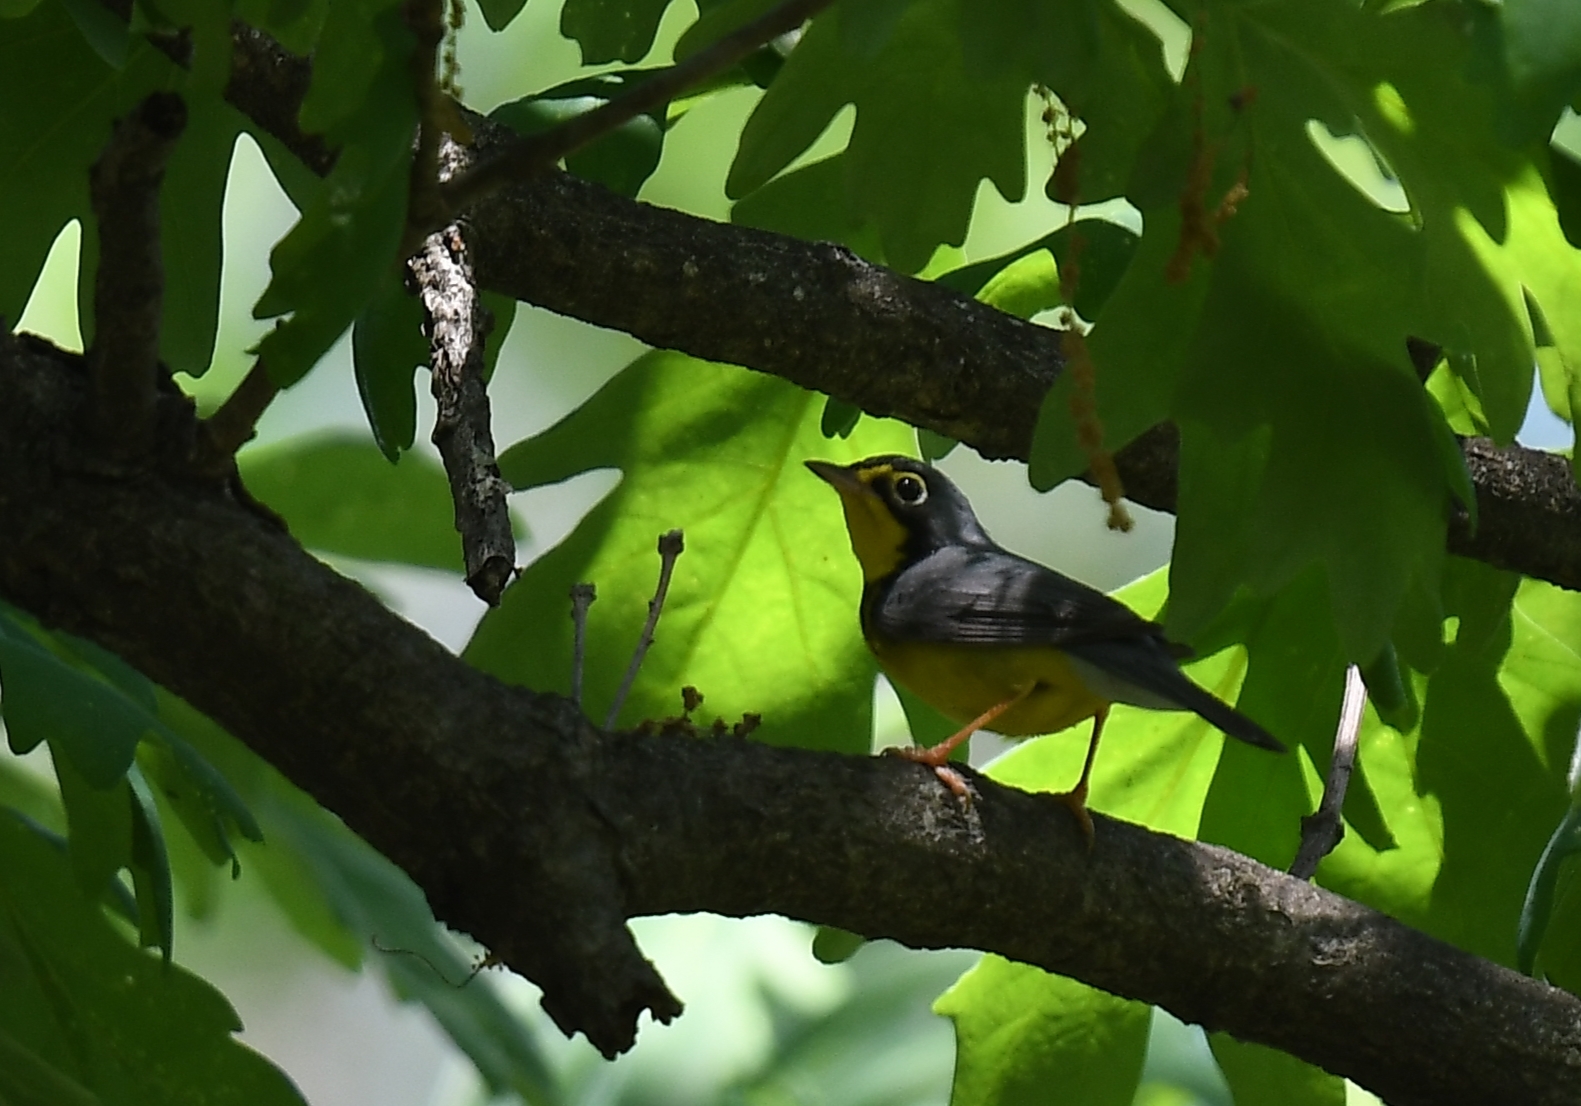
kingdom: Animalia
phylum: Chordata
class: Aves
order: Passeriformes
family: Parulidae
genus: Cardellina
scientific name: Cardellina canadensis
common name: Canada warbler
